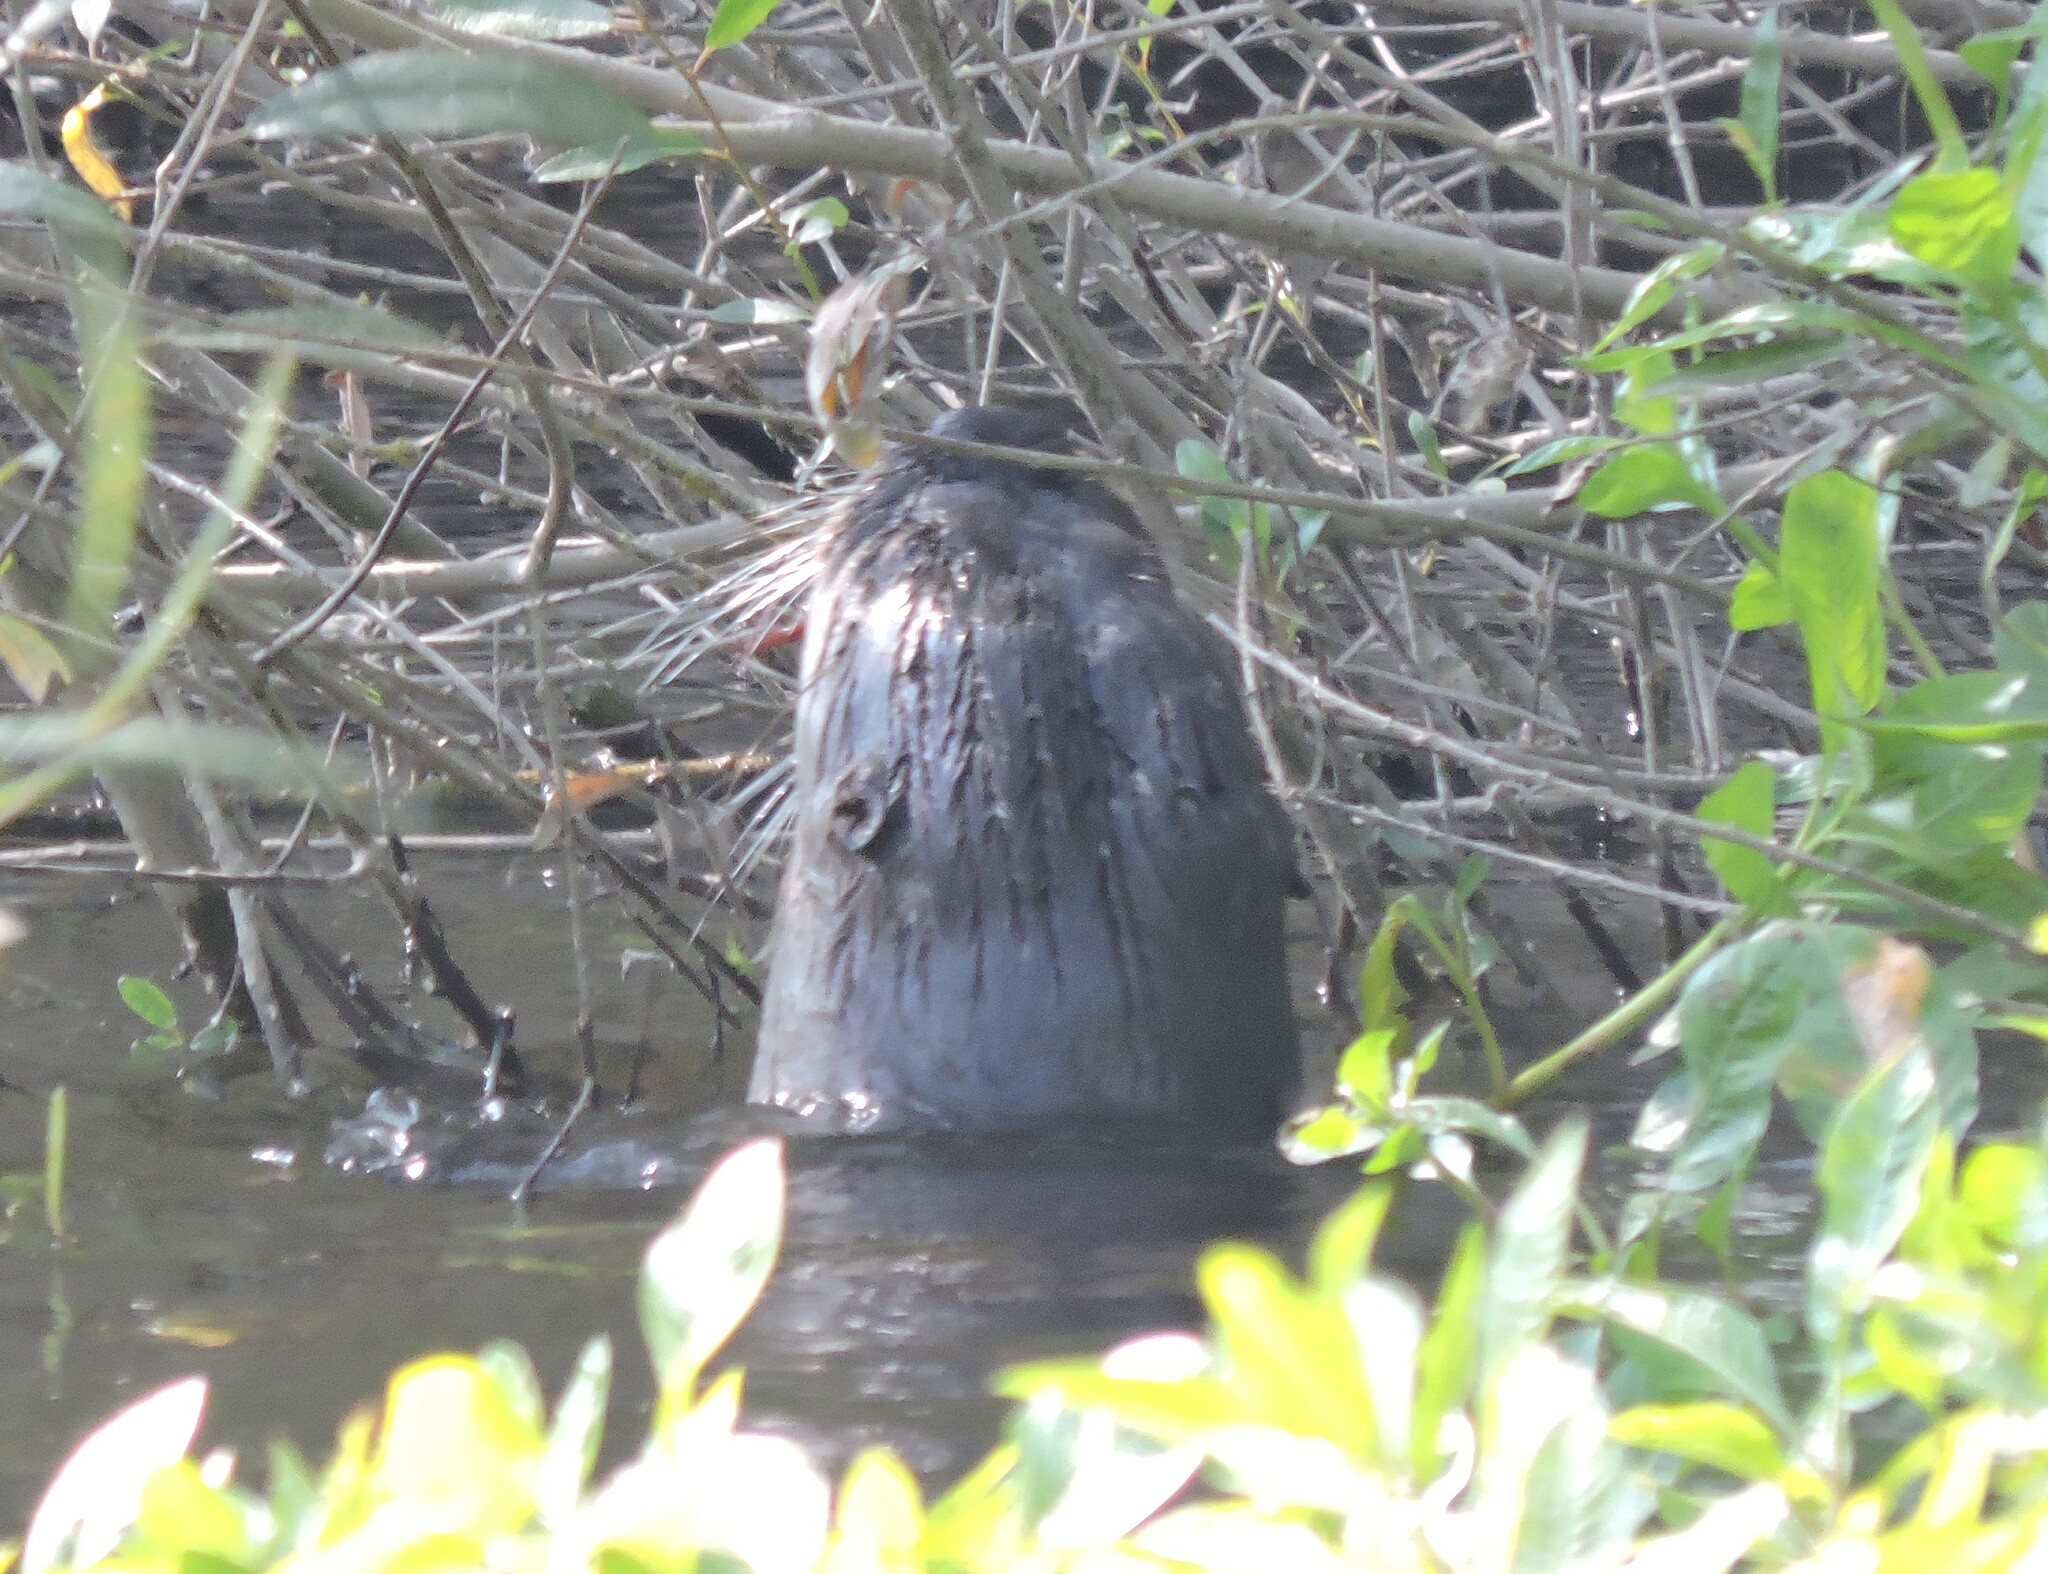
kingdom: Animalia
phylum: Chordata
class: Mammalia
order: Carnivora
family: Mustelidae
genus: Lontra
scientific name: Lontra canadensis
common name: North american river otter
